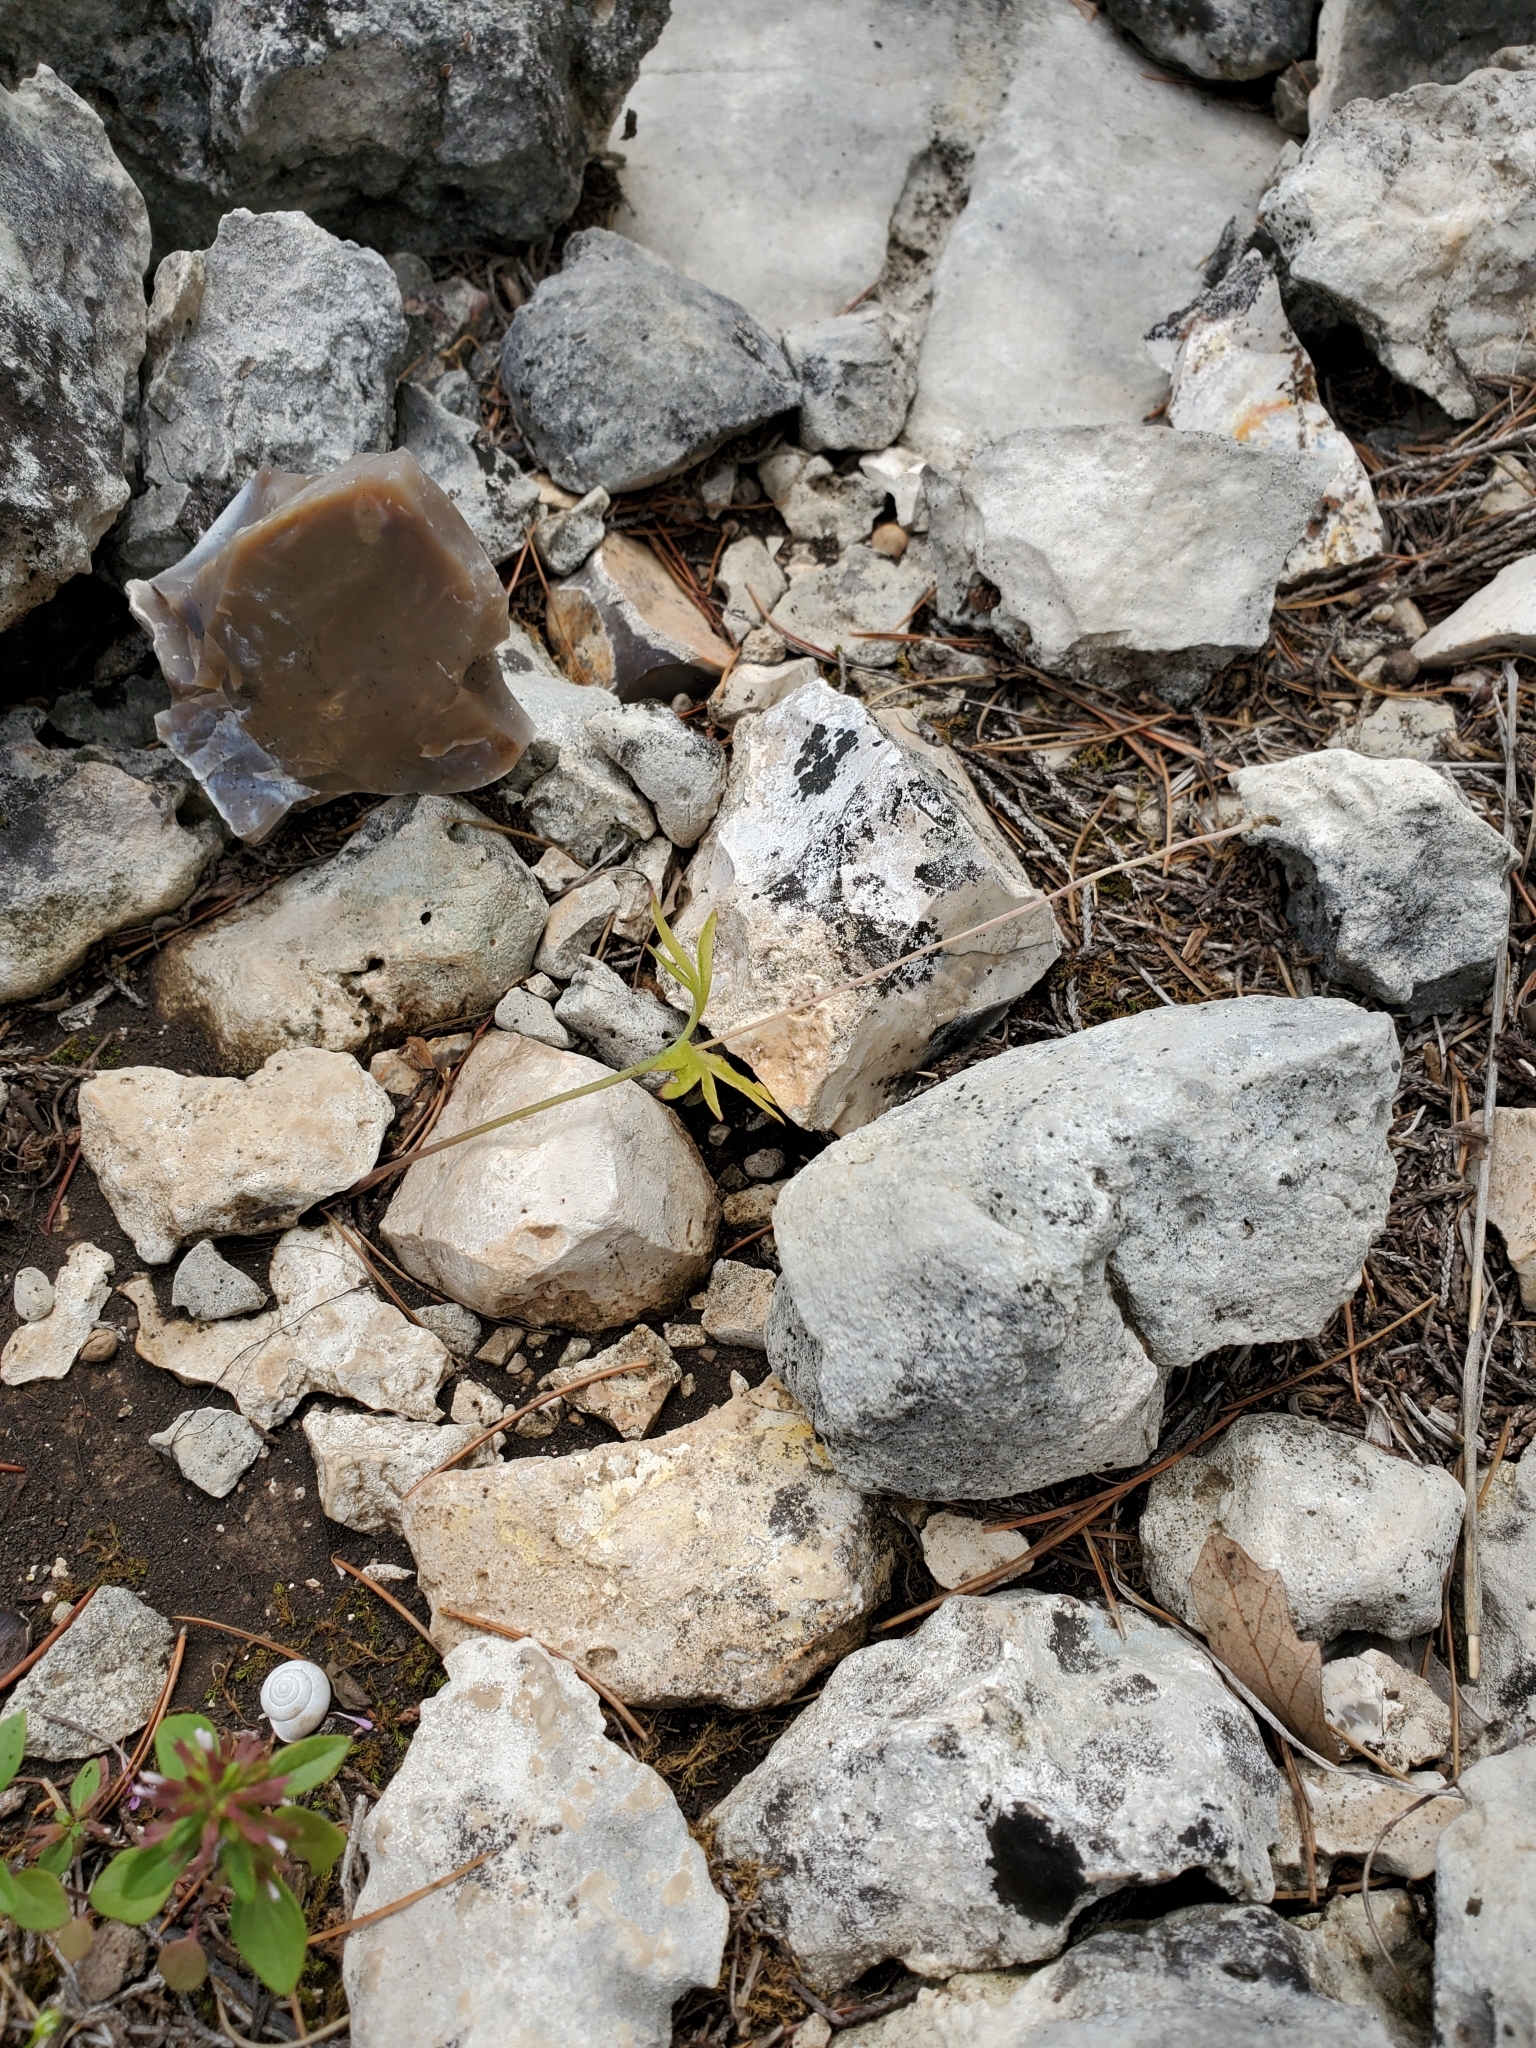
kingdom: Plantae
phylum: Tracheophyta
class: Magnoliopsida
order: Ranunculales
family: Ranunculaceae
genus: Anemone
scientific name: Anemone edwardsiana
